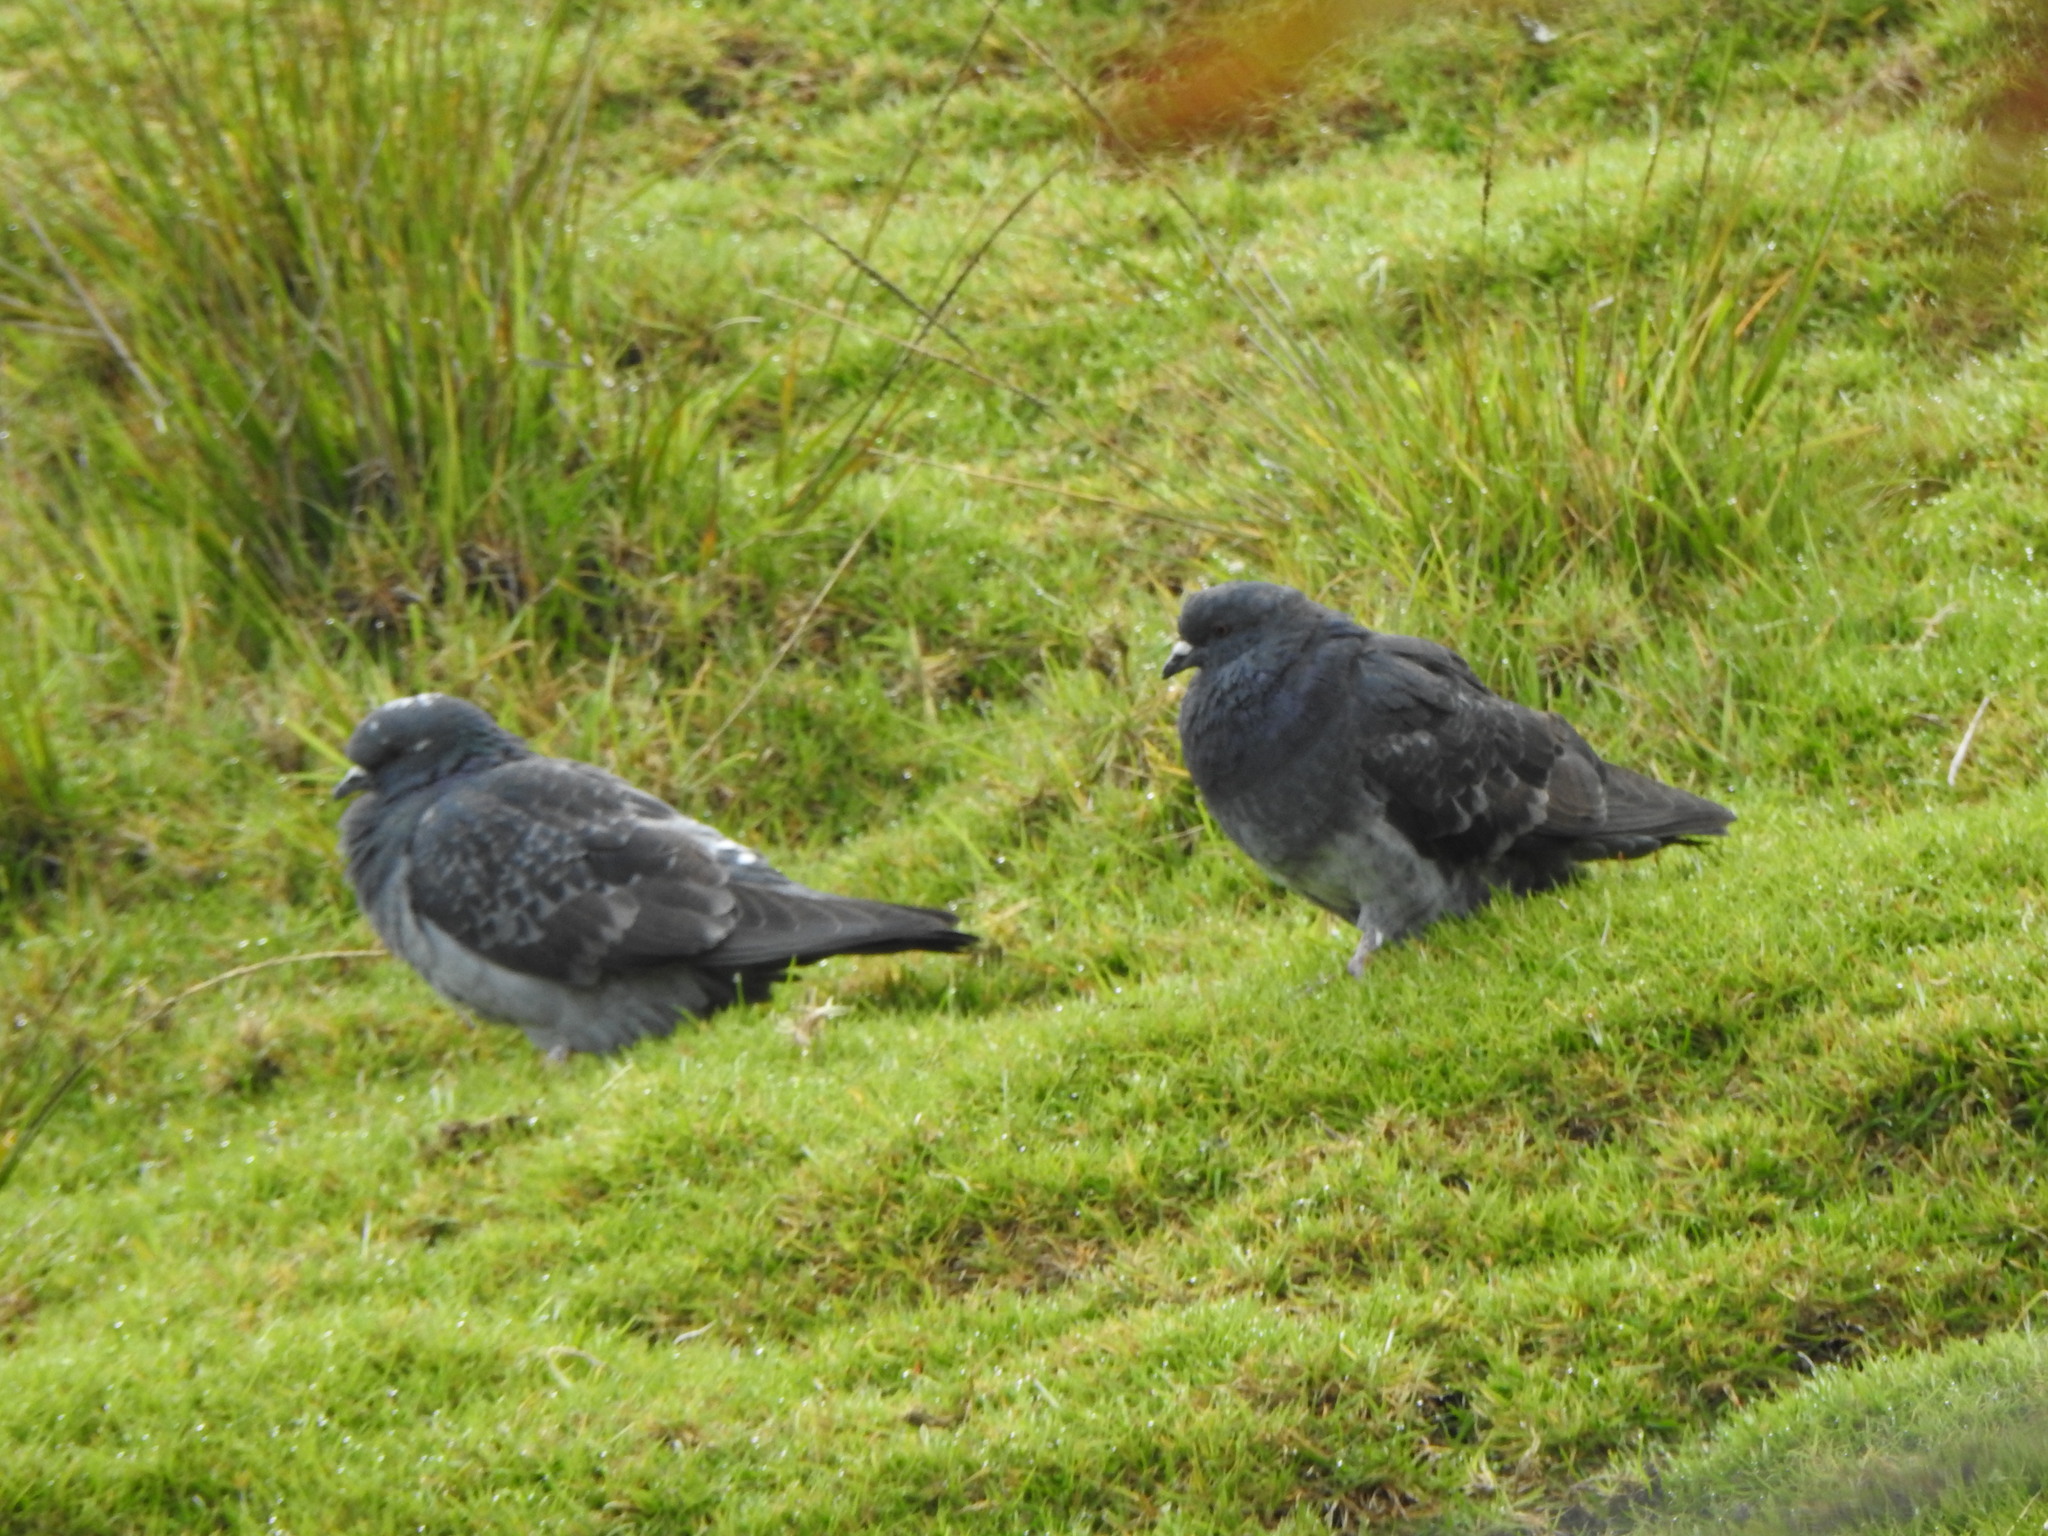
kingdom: Animalia
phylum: Chordata
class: Aves
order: Columbiformes
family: Columbidae
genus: Columba
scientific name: Columba livia
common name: Rock pigeon
